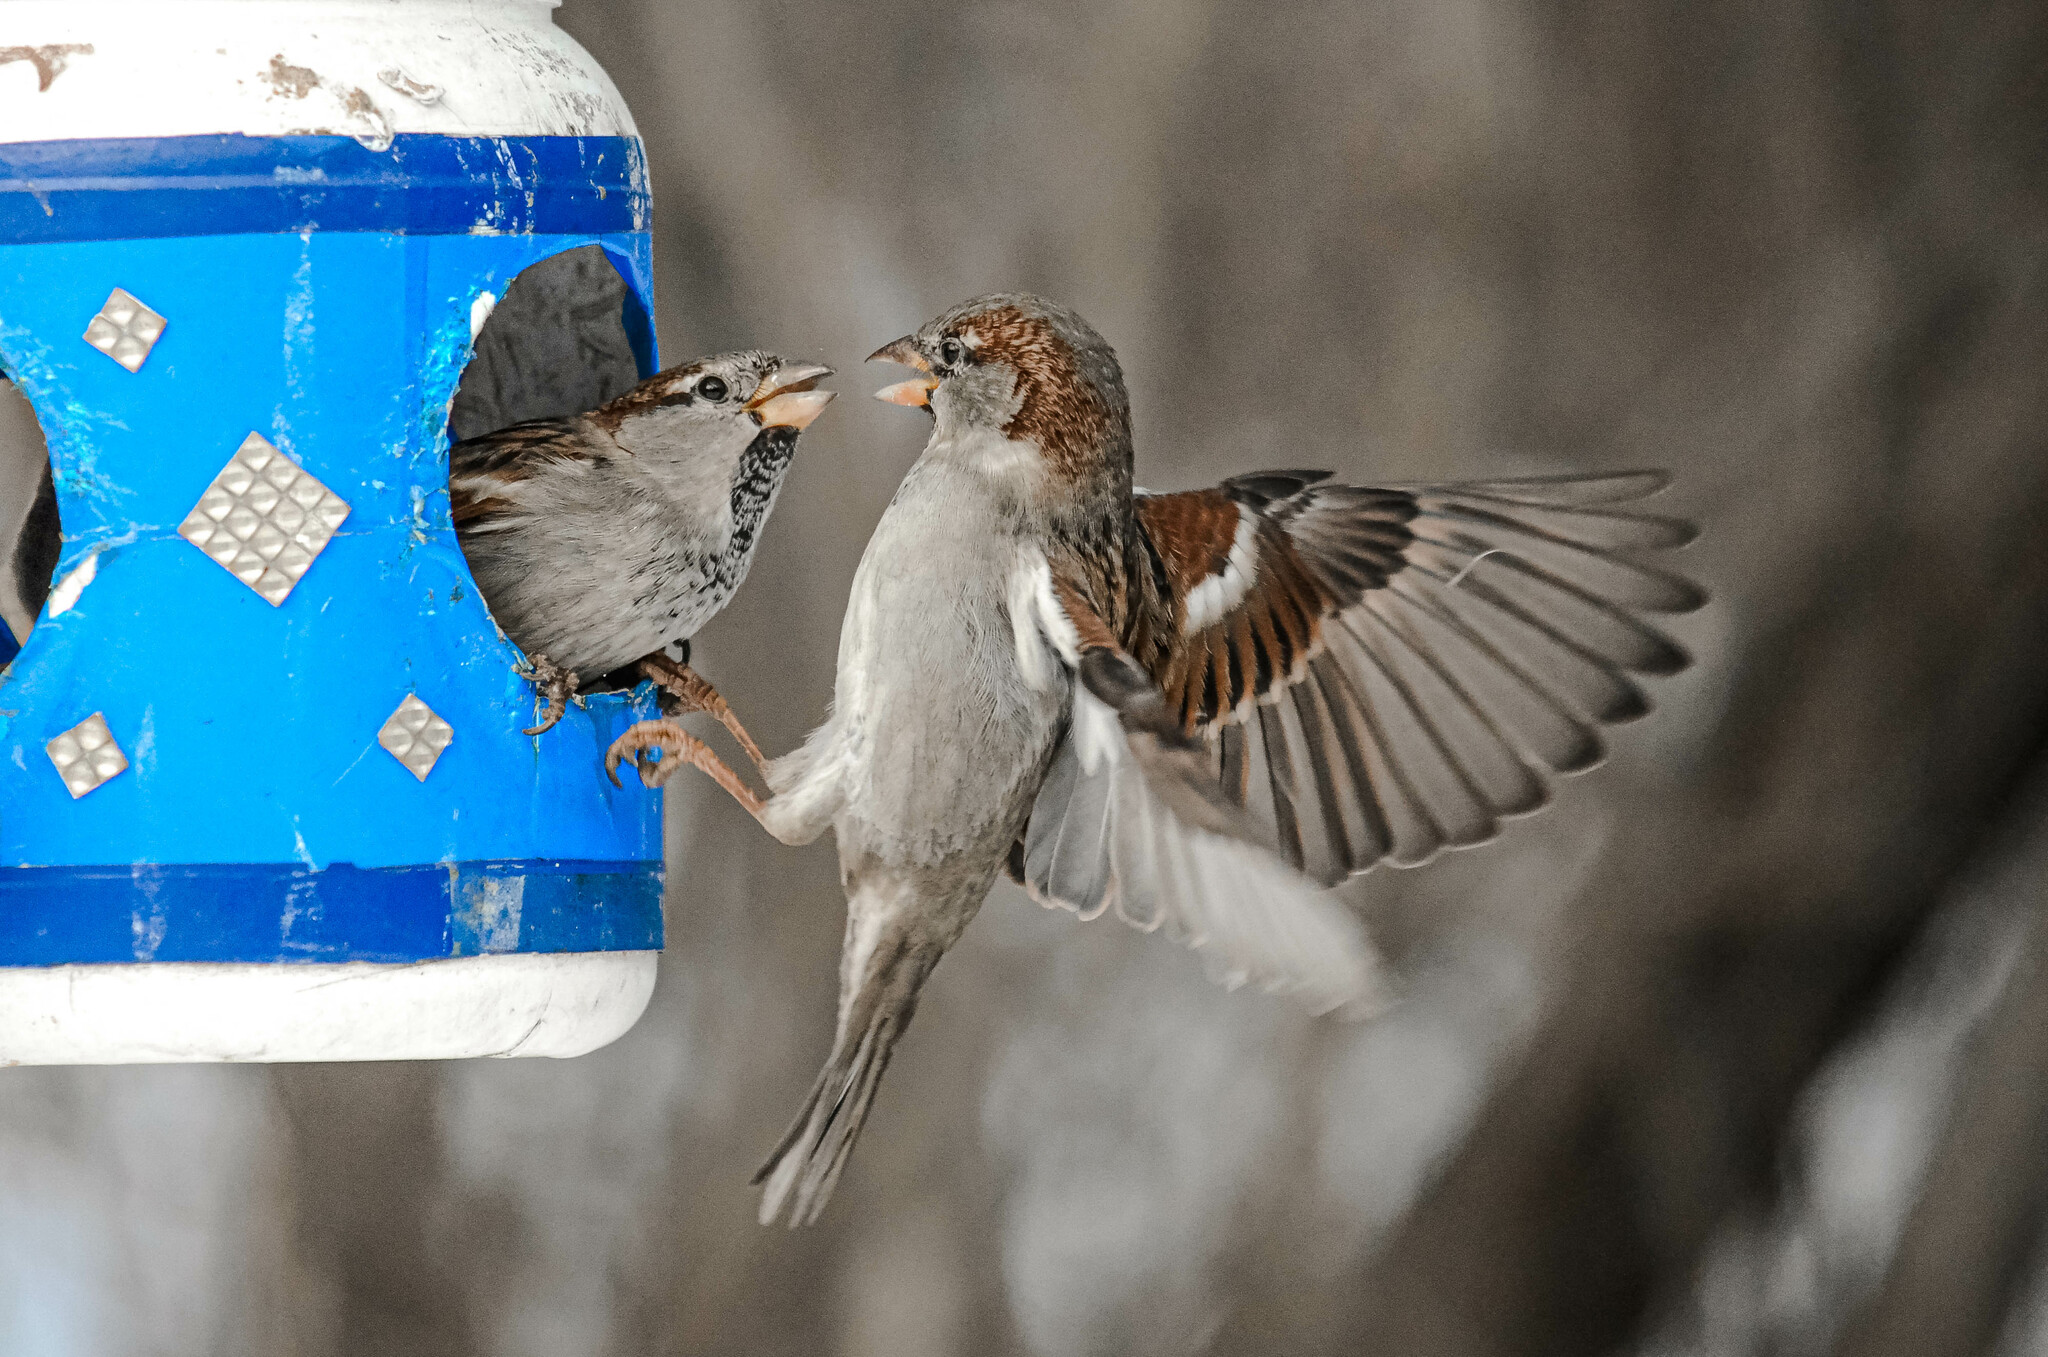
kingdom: Animalia
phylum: Chordata
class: Aves
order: Passeriformes
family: Passeridae
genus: Passer
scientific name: Passer domesticus
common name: House sparrow
